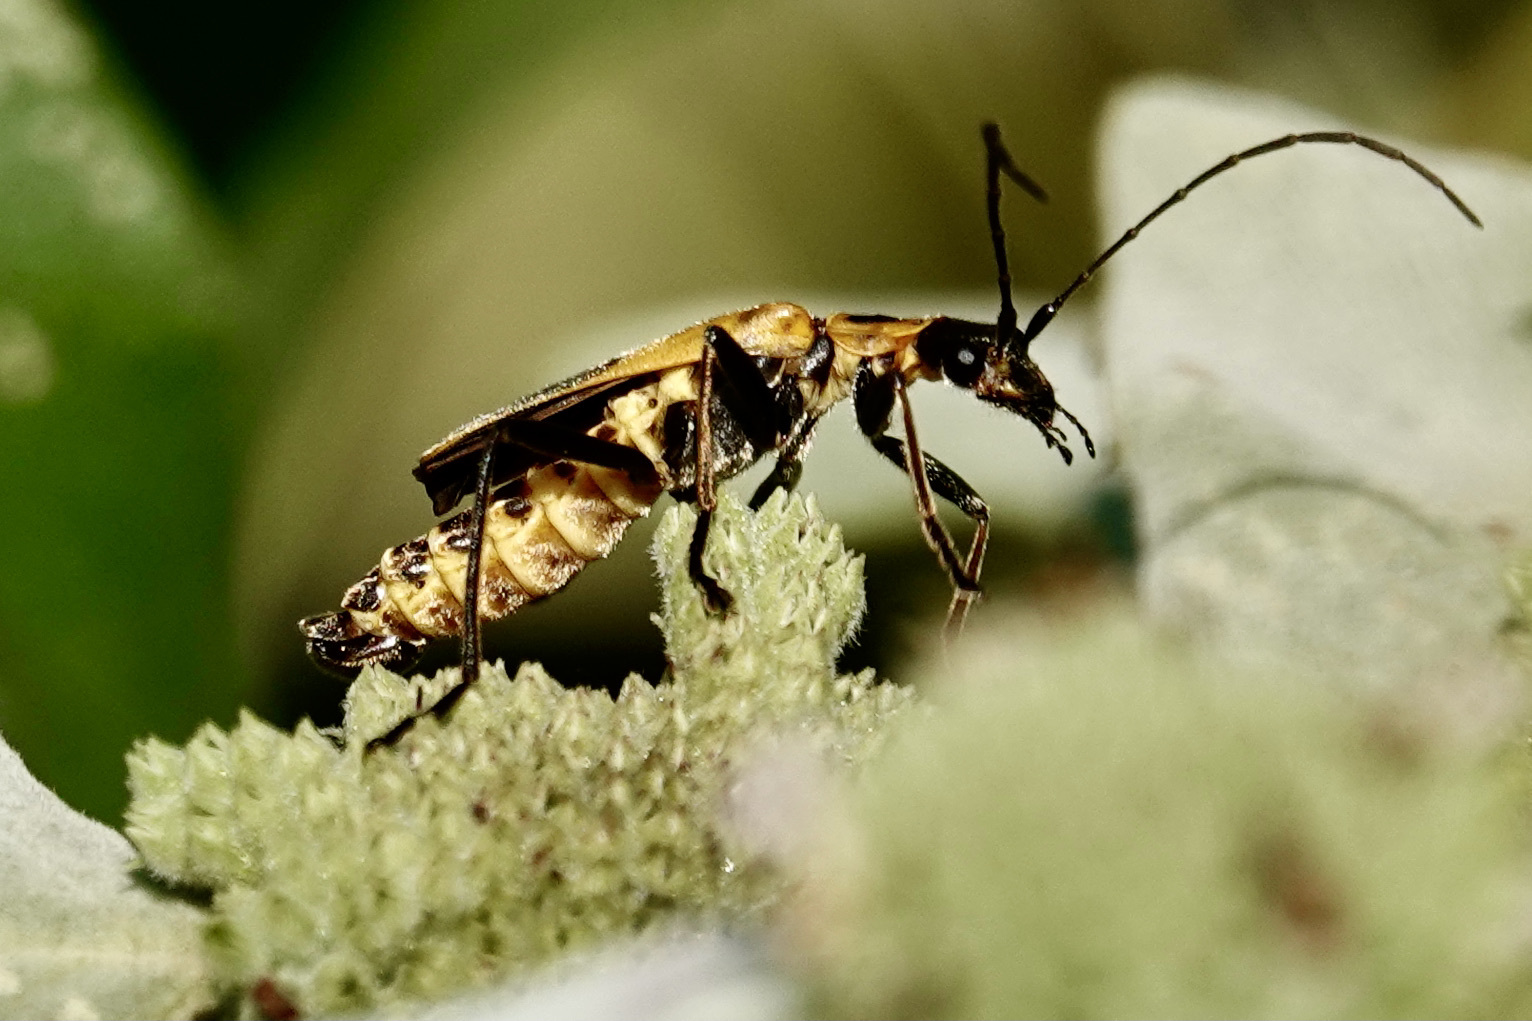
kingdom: Animalia
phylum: Arthropoda
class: Insecta
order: Coleoptera
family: Cantharidae
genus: Chauliognathus
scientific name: Chauliognathus pensylvanicus
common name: Goldenrod soldier beetle
